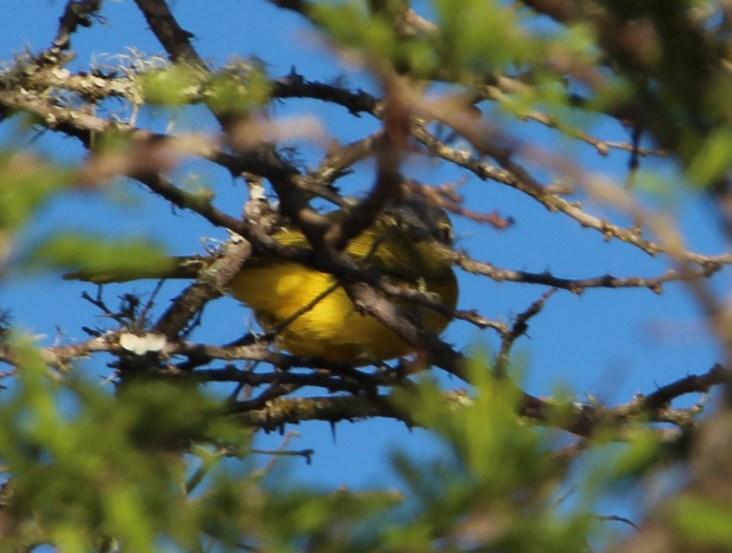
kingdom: Animalia
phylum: Chordata
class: Aves
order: Passeriformes
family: Malaconotidae
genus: Chlorophoneus
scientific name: Chlorophoneus sulfureopectus
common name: Orange-breasted bushshrike
